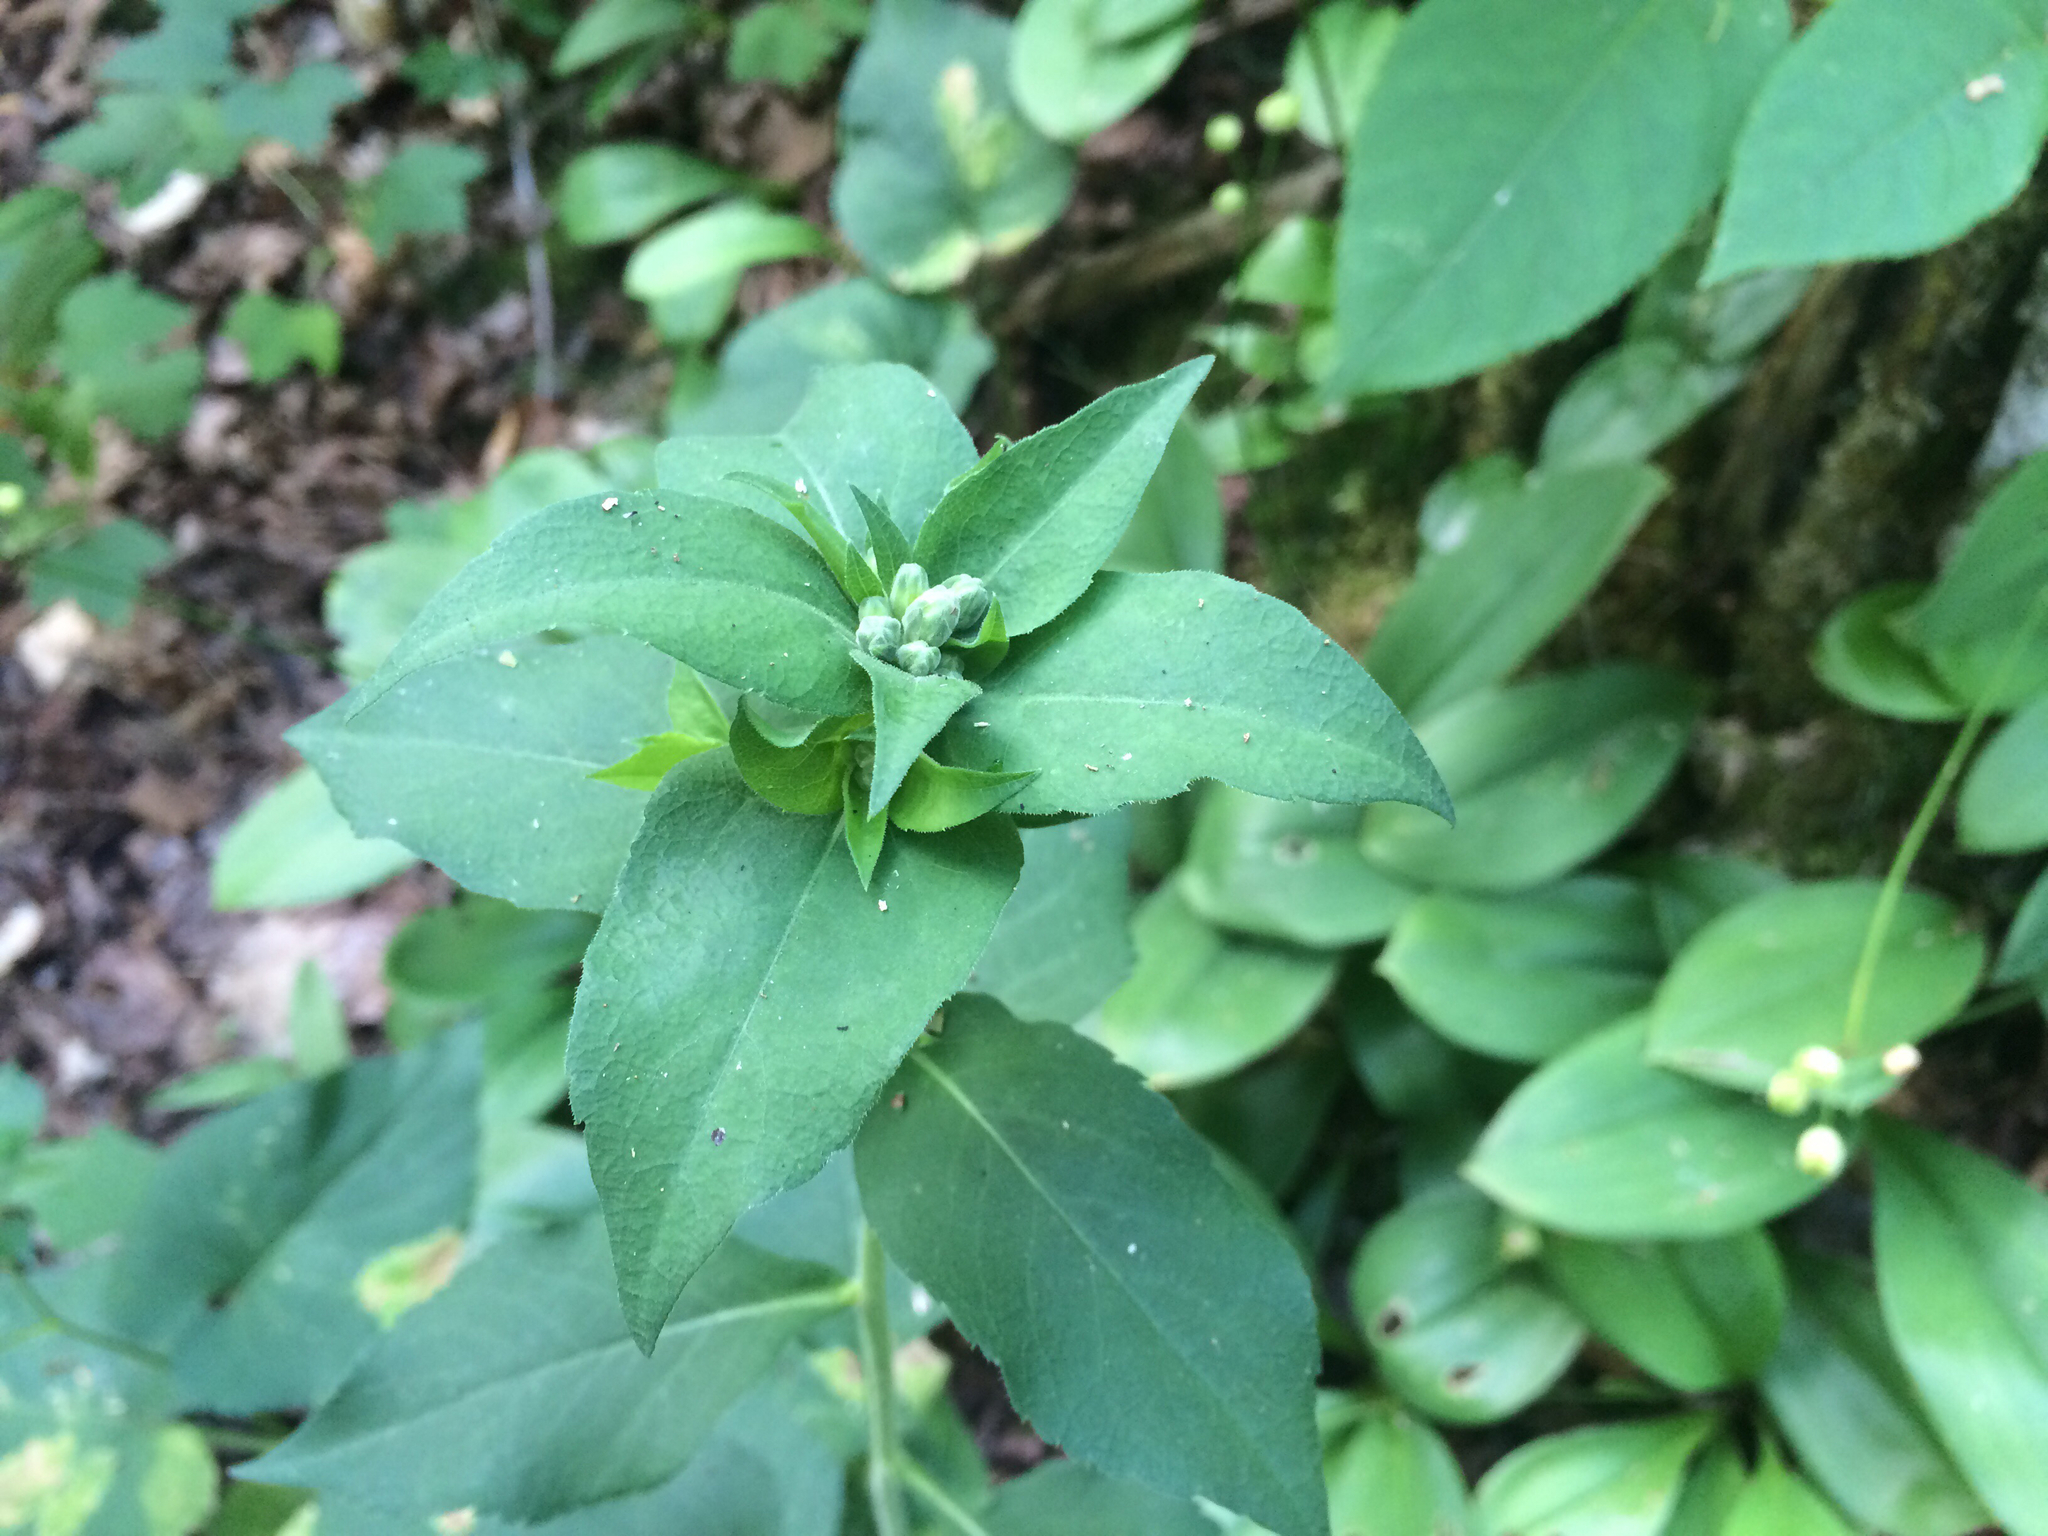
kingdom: Plantae
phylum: Tracheophyta
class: Magnoliopsida
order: Asterales
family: Asteraceae
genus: Eurybia
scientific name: Eurybia macrophylla
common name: Big-leaved aster
